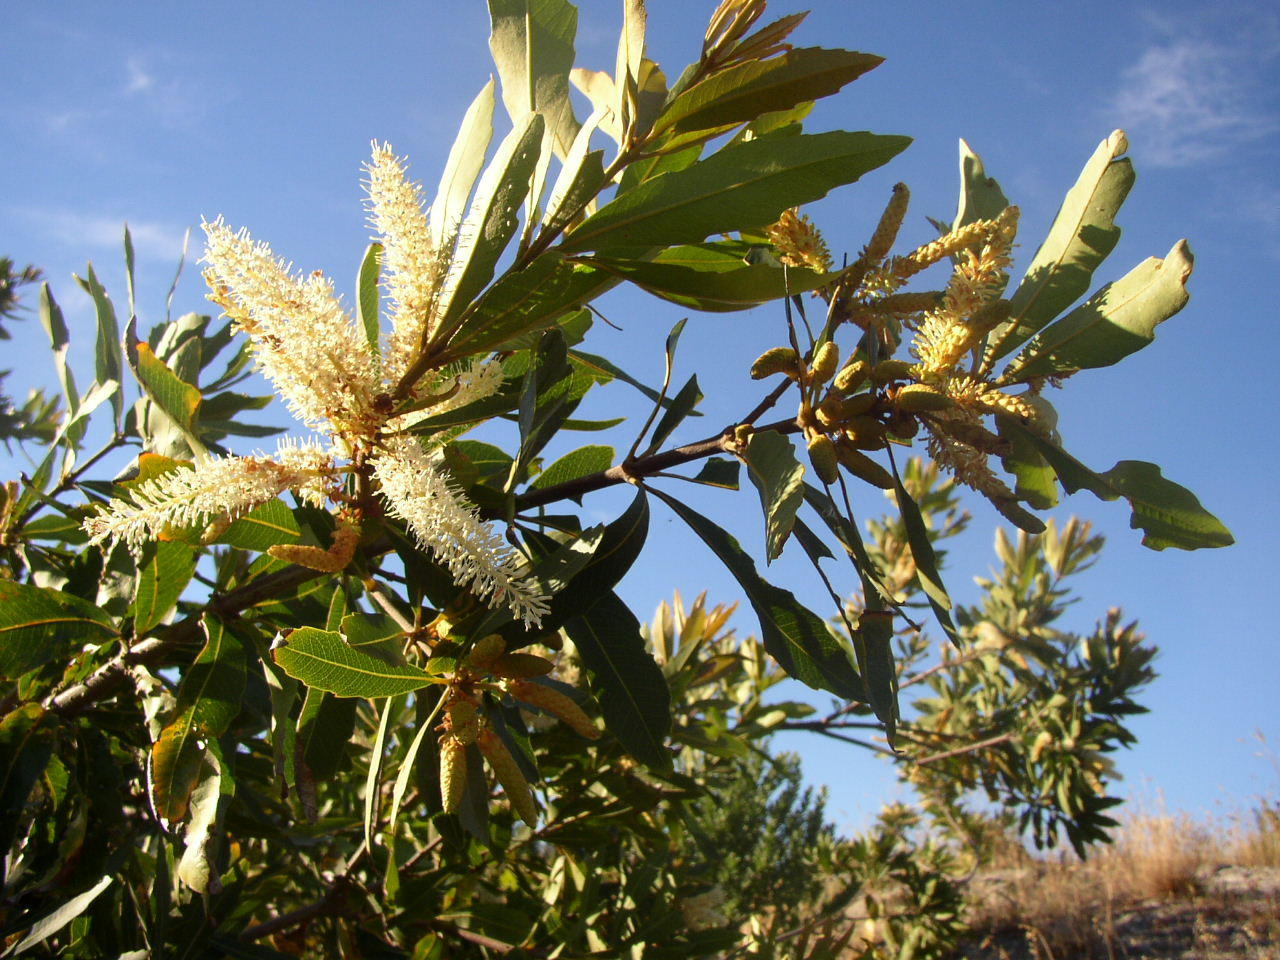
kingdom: Plantae
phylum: Tracheophyta
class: Magnoliopsida
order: Proteales
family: Proteaceae
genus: Brabejum
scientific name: Brabejum stellatifolium
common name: Wild almond
